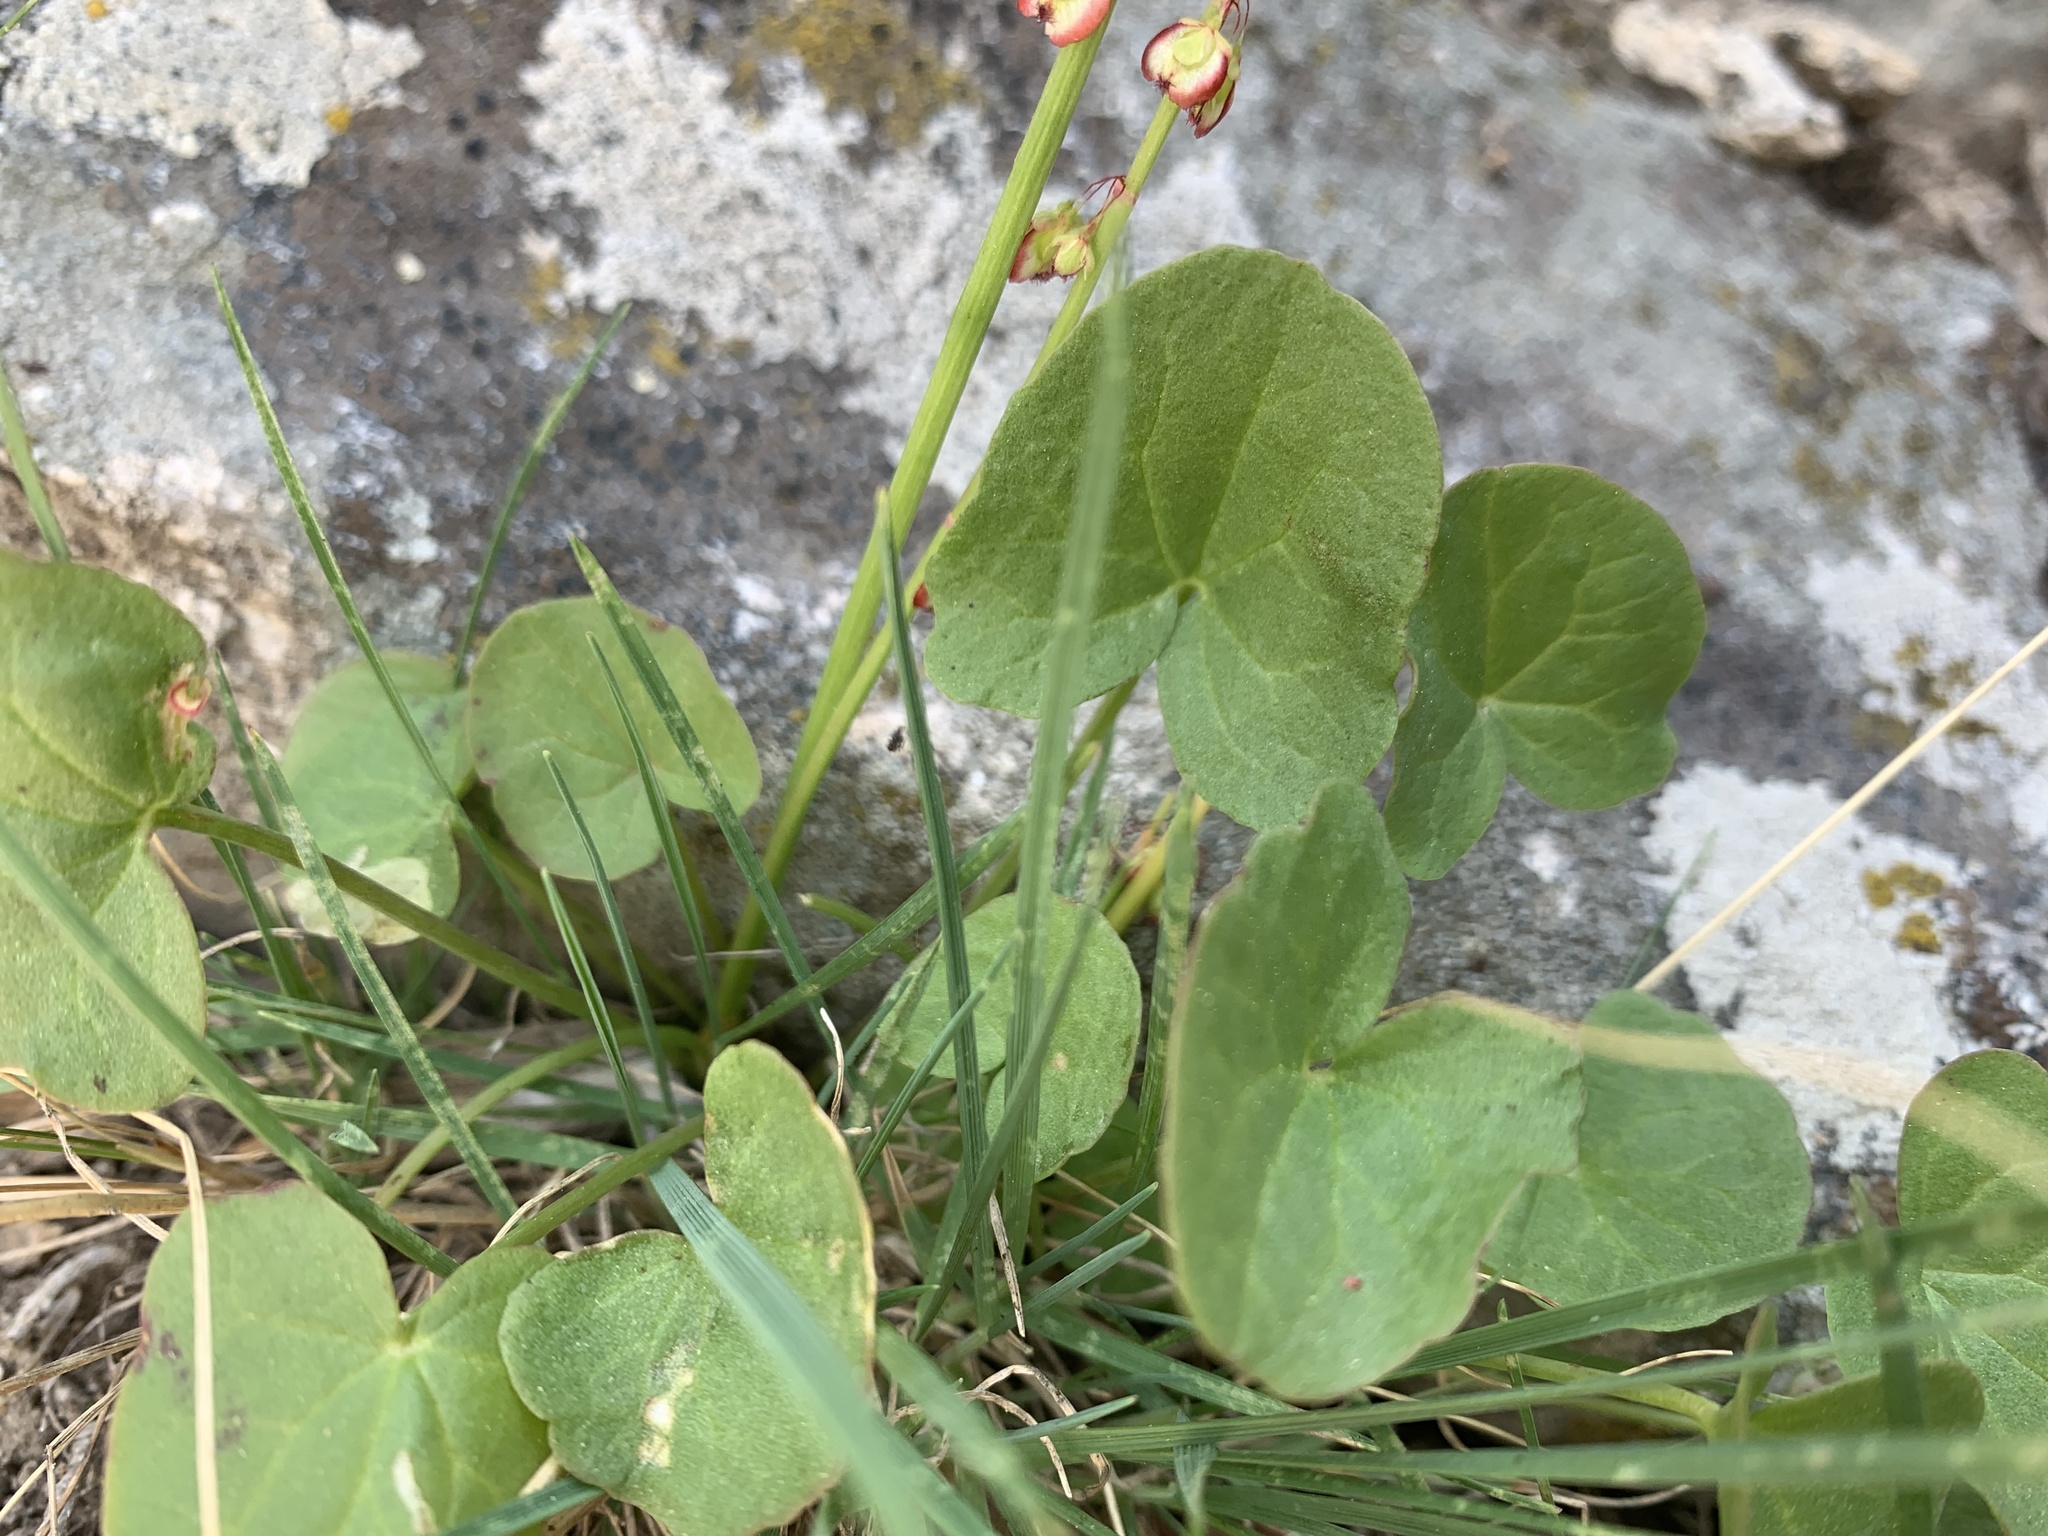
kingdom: Plantae
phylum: Tracheophyta
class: Magnoliopsida
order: Caryophyllales
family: Polygonaceae
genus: Oxyria
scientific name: Oxyria digyna
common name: Alpine mountain-sorrel
